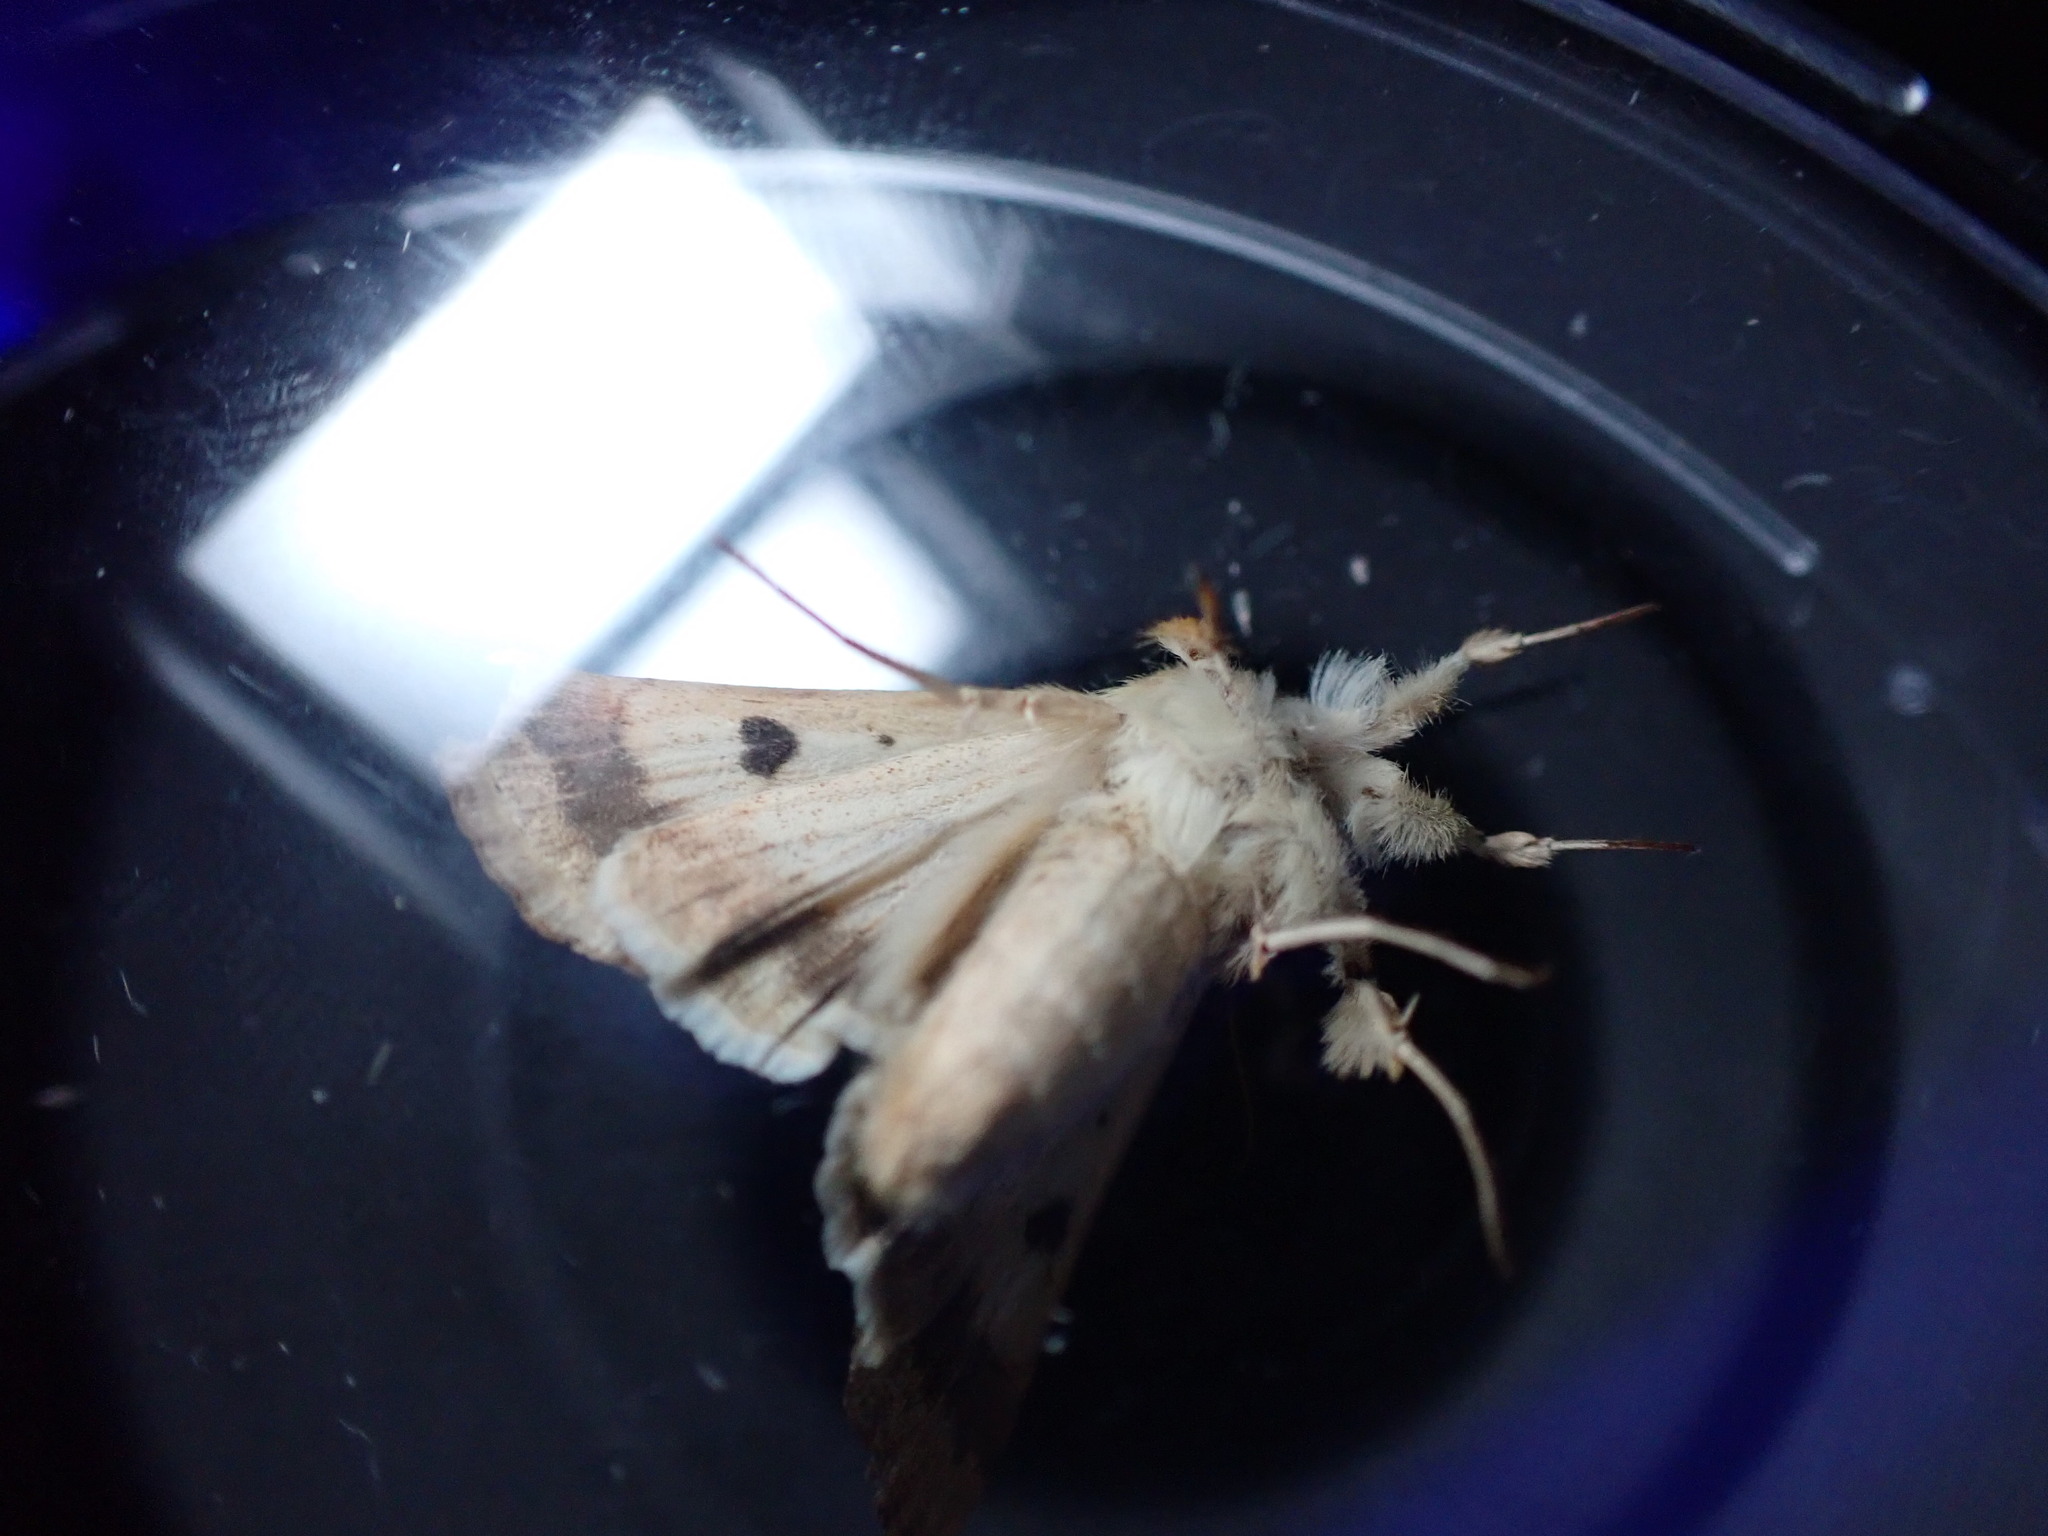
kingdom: Animalia
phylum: Arthropoda
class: Insecta
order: Lepidoptera
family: Noctuidae
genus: Heliothis
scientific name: Heliothis peltigera
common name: Bordered straw
